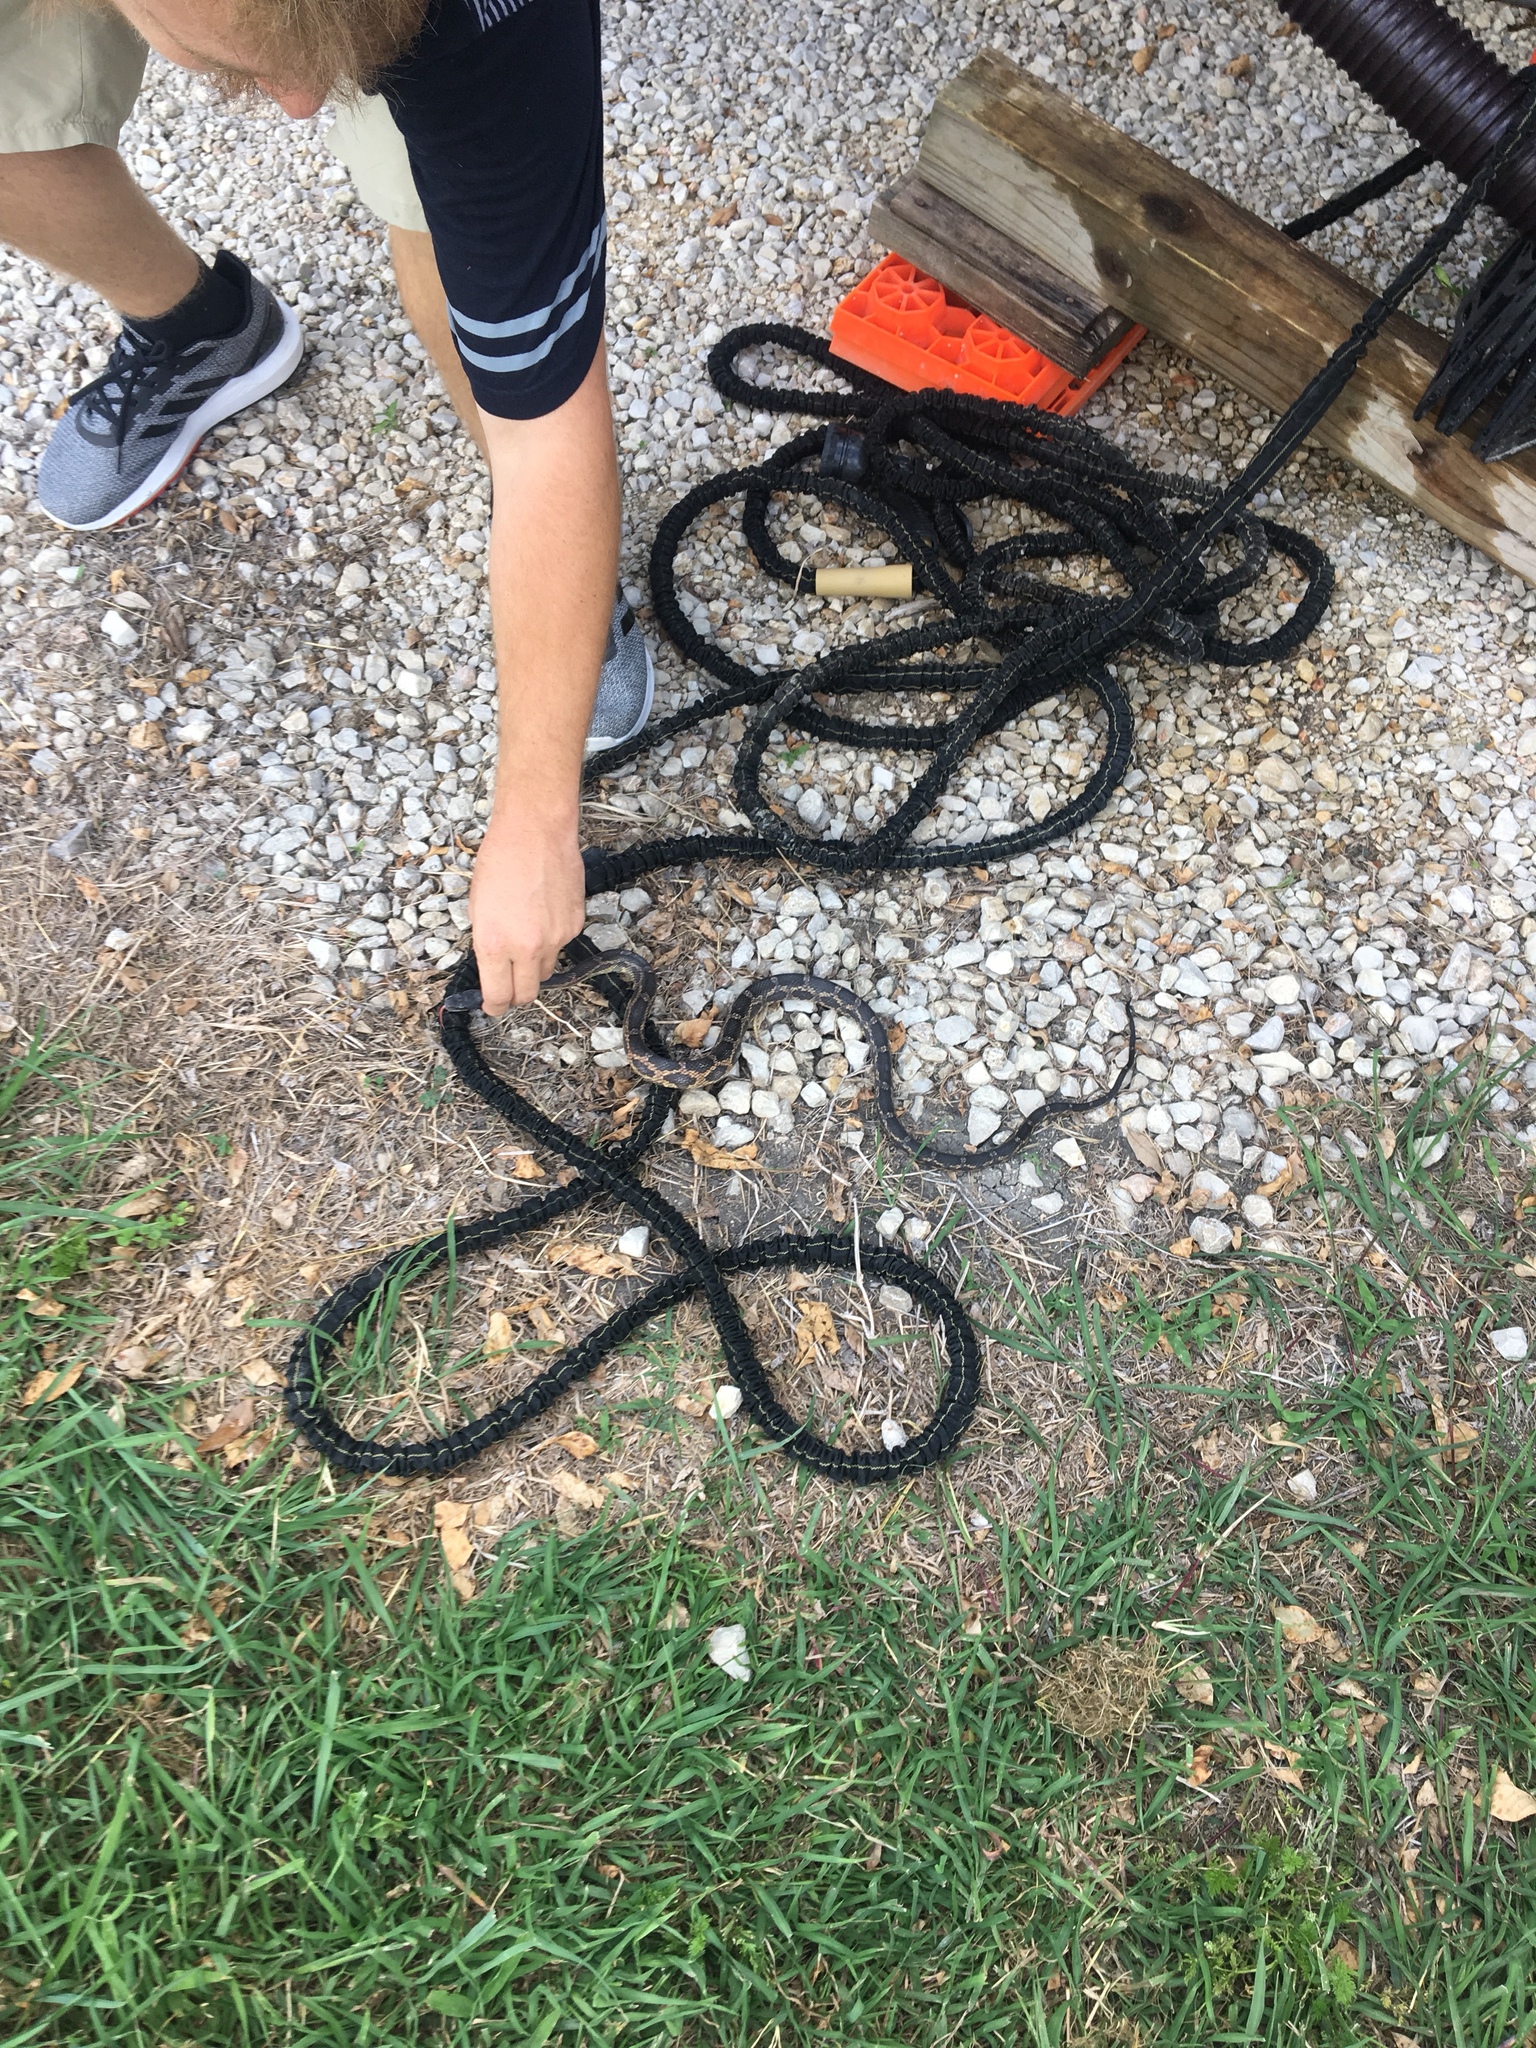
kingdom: Animalia
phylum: Chordata
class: Squamata
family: Colubridae
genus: Pantherophis
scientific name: Pantherophis obsoletus
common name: Black rat snake
